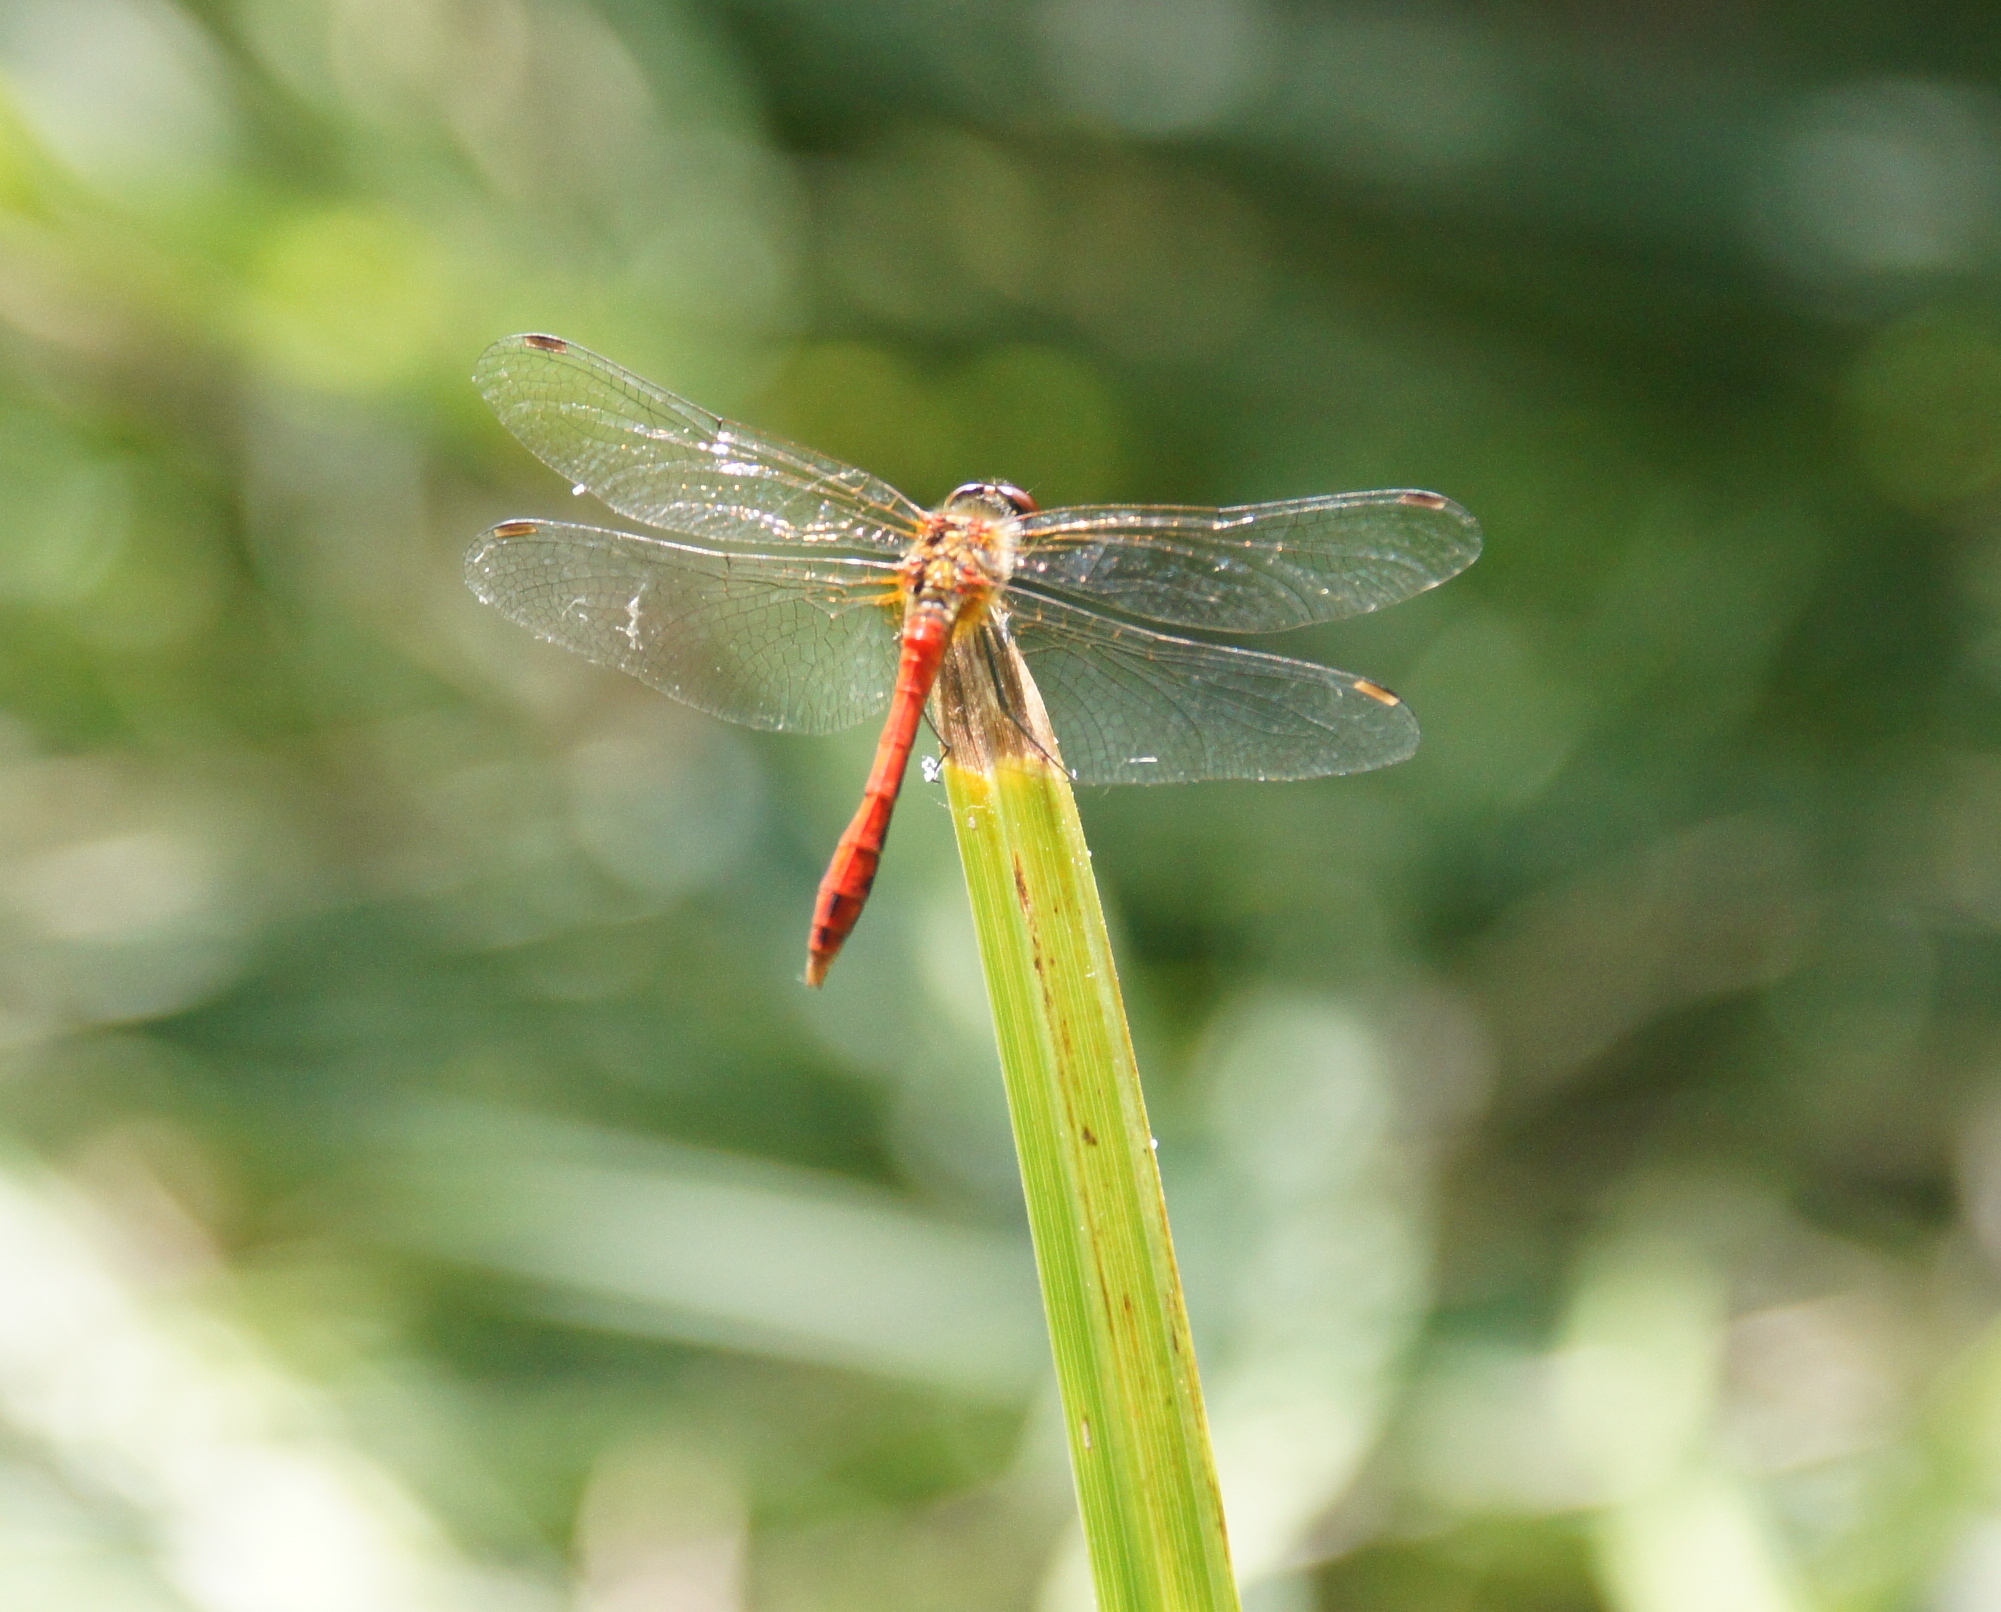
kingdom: Animalia
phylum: Arthropoda
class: Insecta
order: Odonata
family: Libellulidae
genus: Sympetrum
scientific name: Sympetrum sanguineum
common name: Ruddy darter
